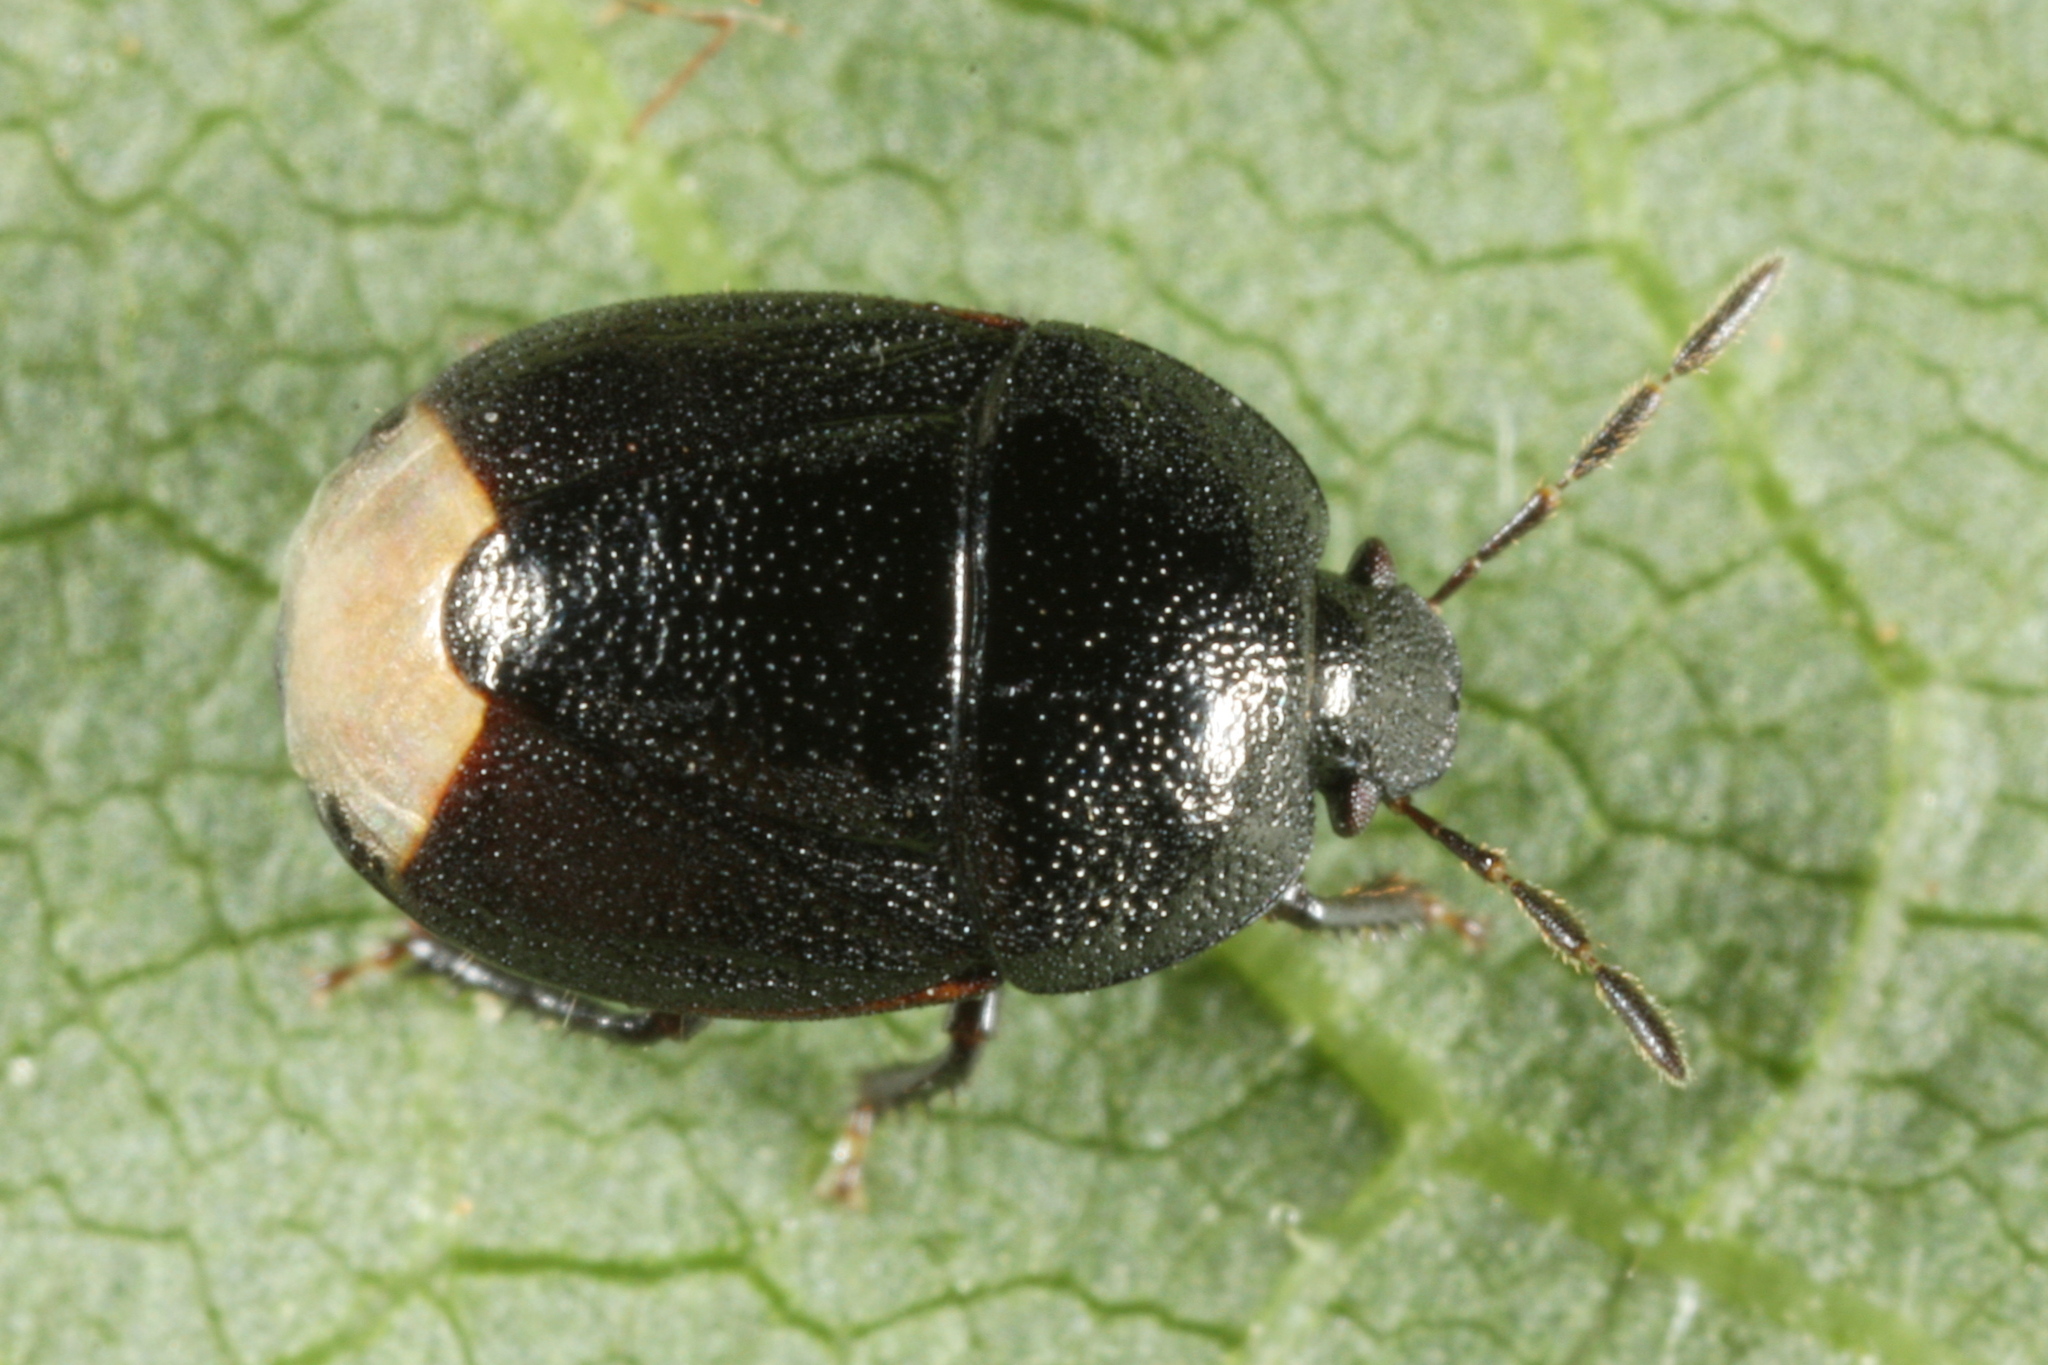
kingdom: Animalia
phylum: Arthropoda
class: Insecta
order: Hemiptera
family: Cydnidae
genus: Legnotus
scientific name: Legnotus picipes
